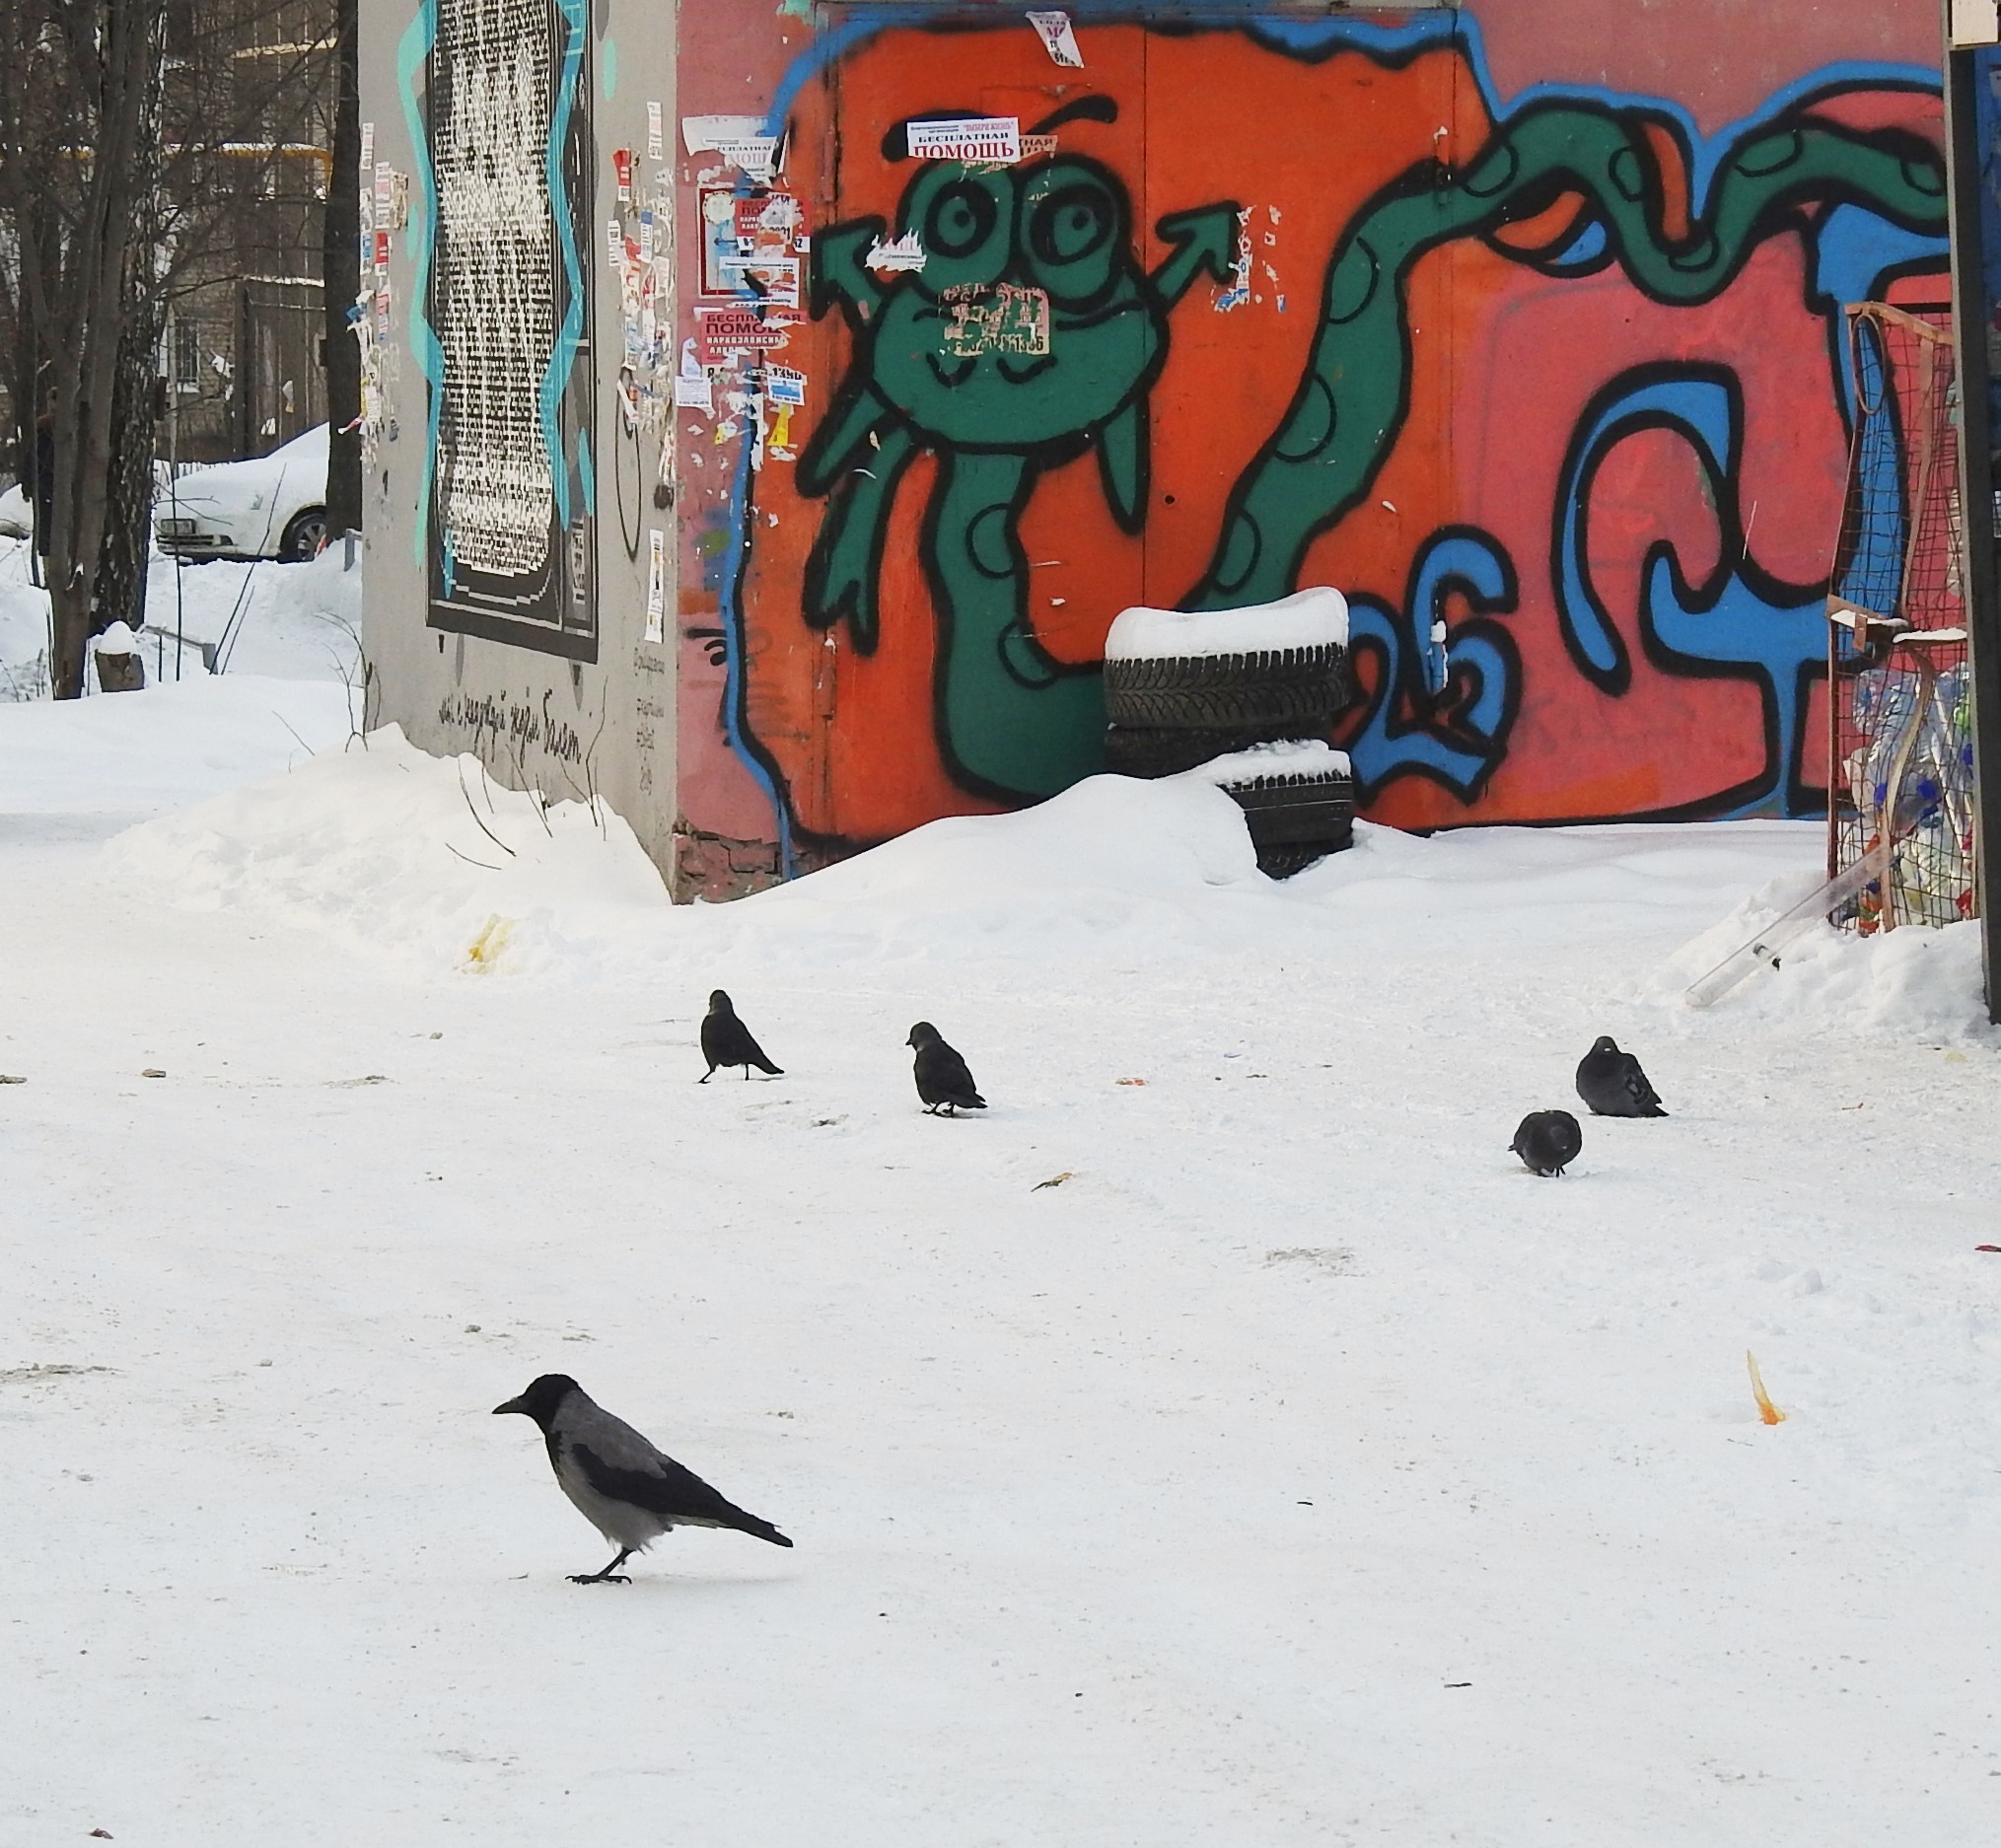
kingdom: Animalia
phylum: Chordata
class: Aves
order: Passeriformes
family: Corvidae
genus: Corvus
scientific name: Corvus cornix
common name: Hooded crow
